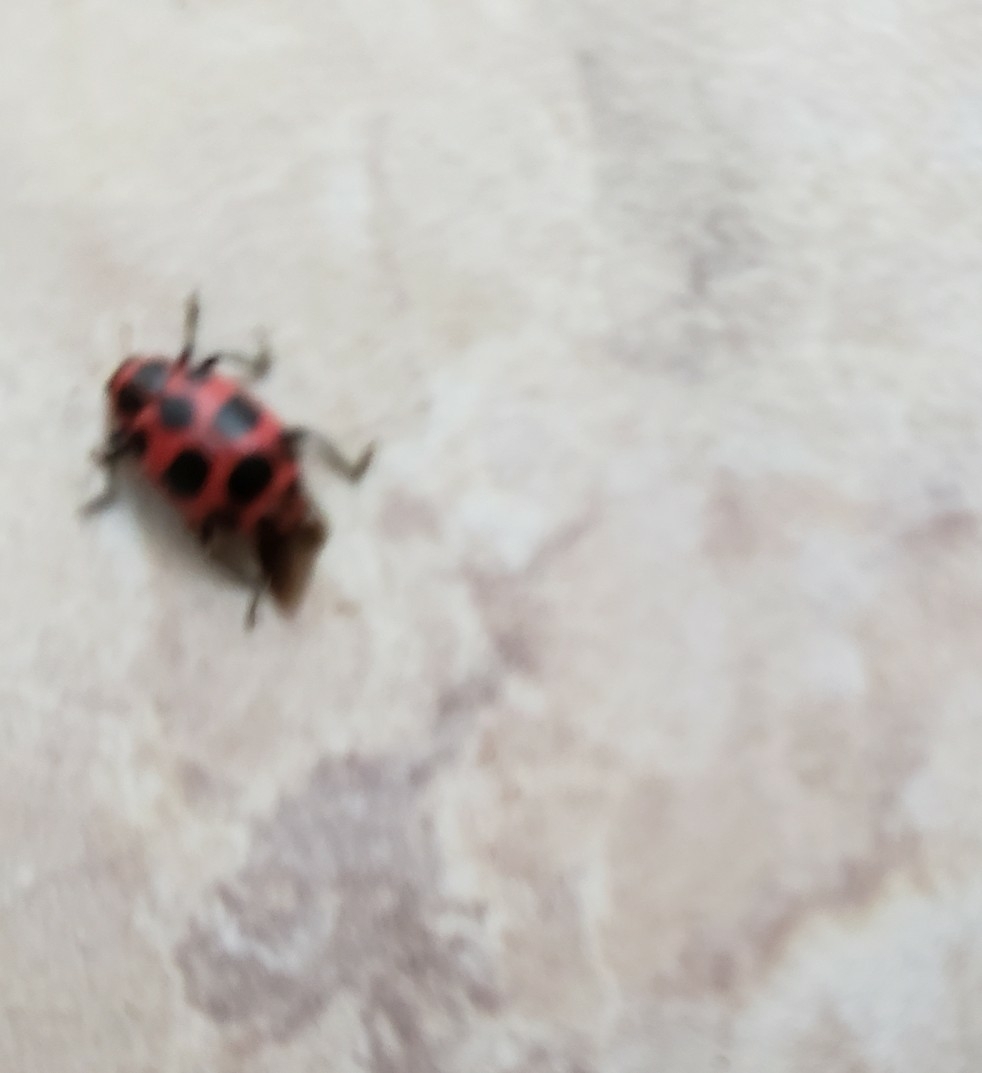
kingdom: Animalia
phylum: Arthropoda
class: Insecta
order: Coleoptera
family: Coccinellidae
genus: Coleomegilla
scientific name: Coleomegilla maculata
